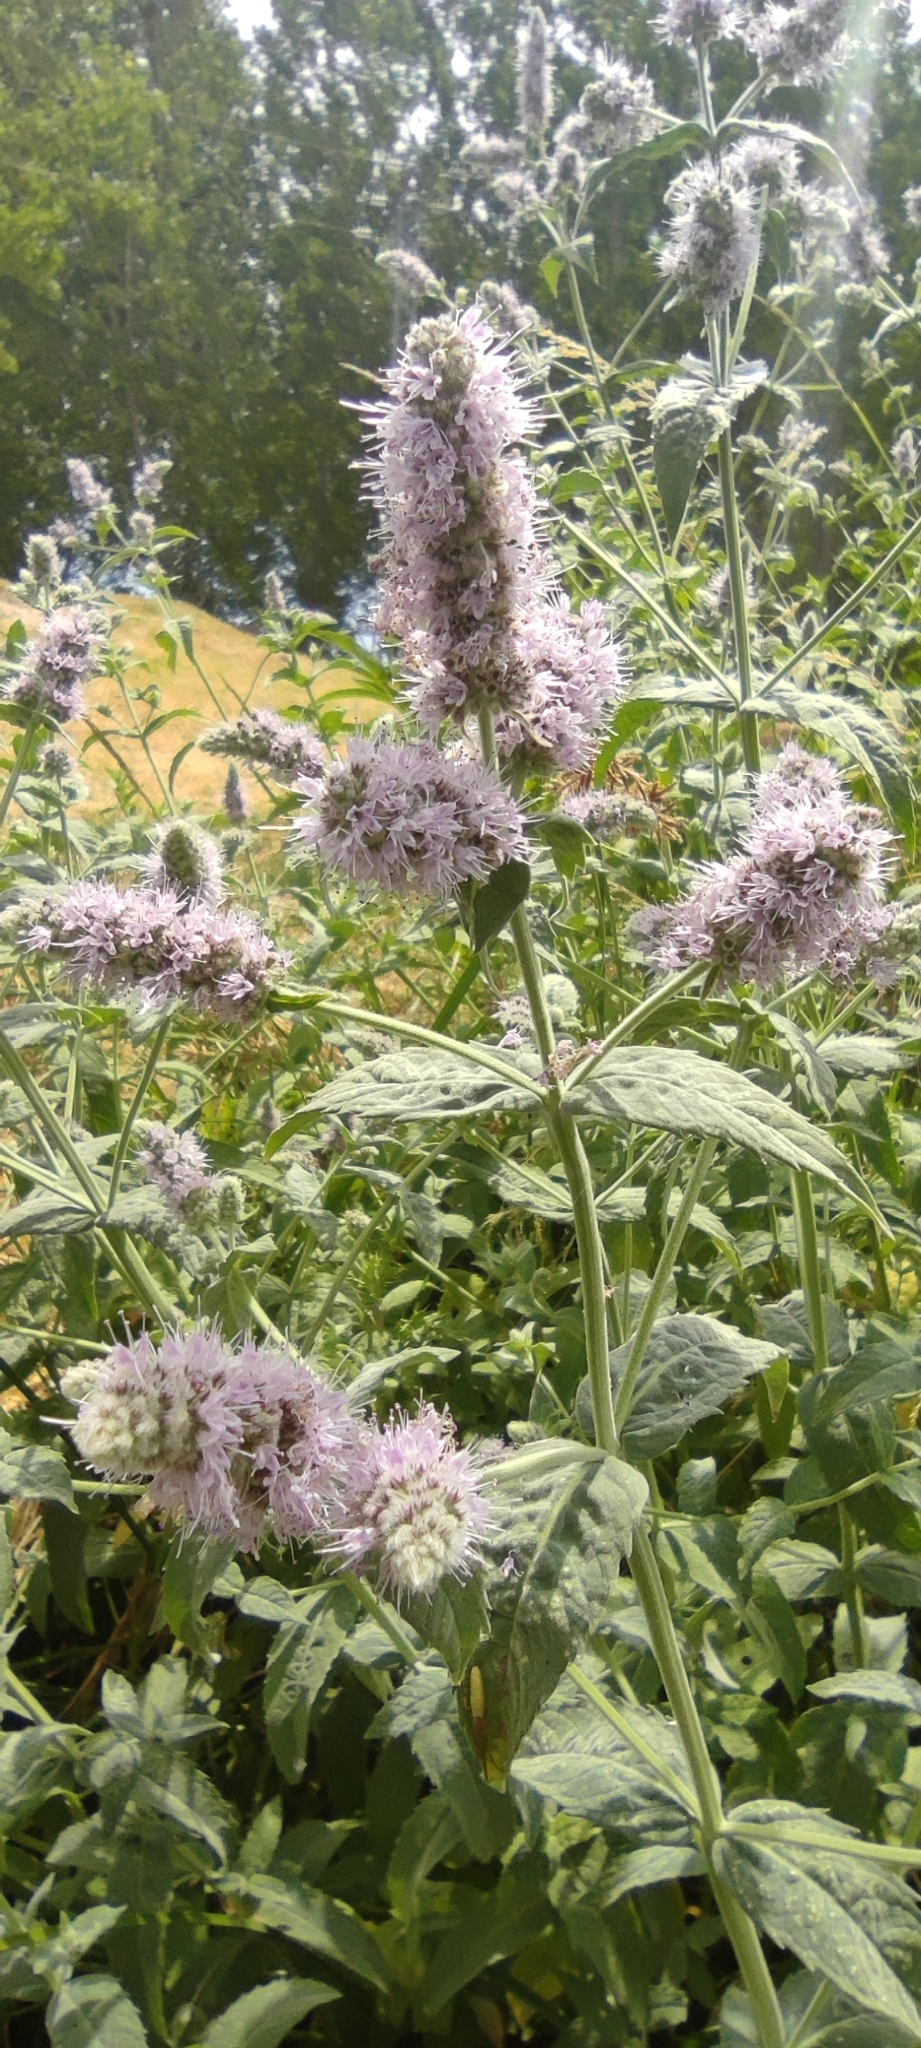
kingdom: Plantae
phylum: Tracheophyta
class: Magnoliopsida
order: Lamiales
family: Lamiaceae
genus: Mentha
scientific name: Mentha longifolia
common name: Horse mint
